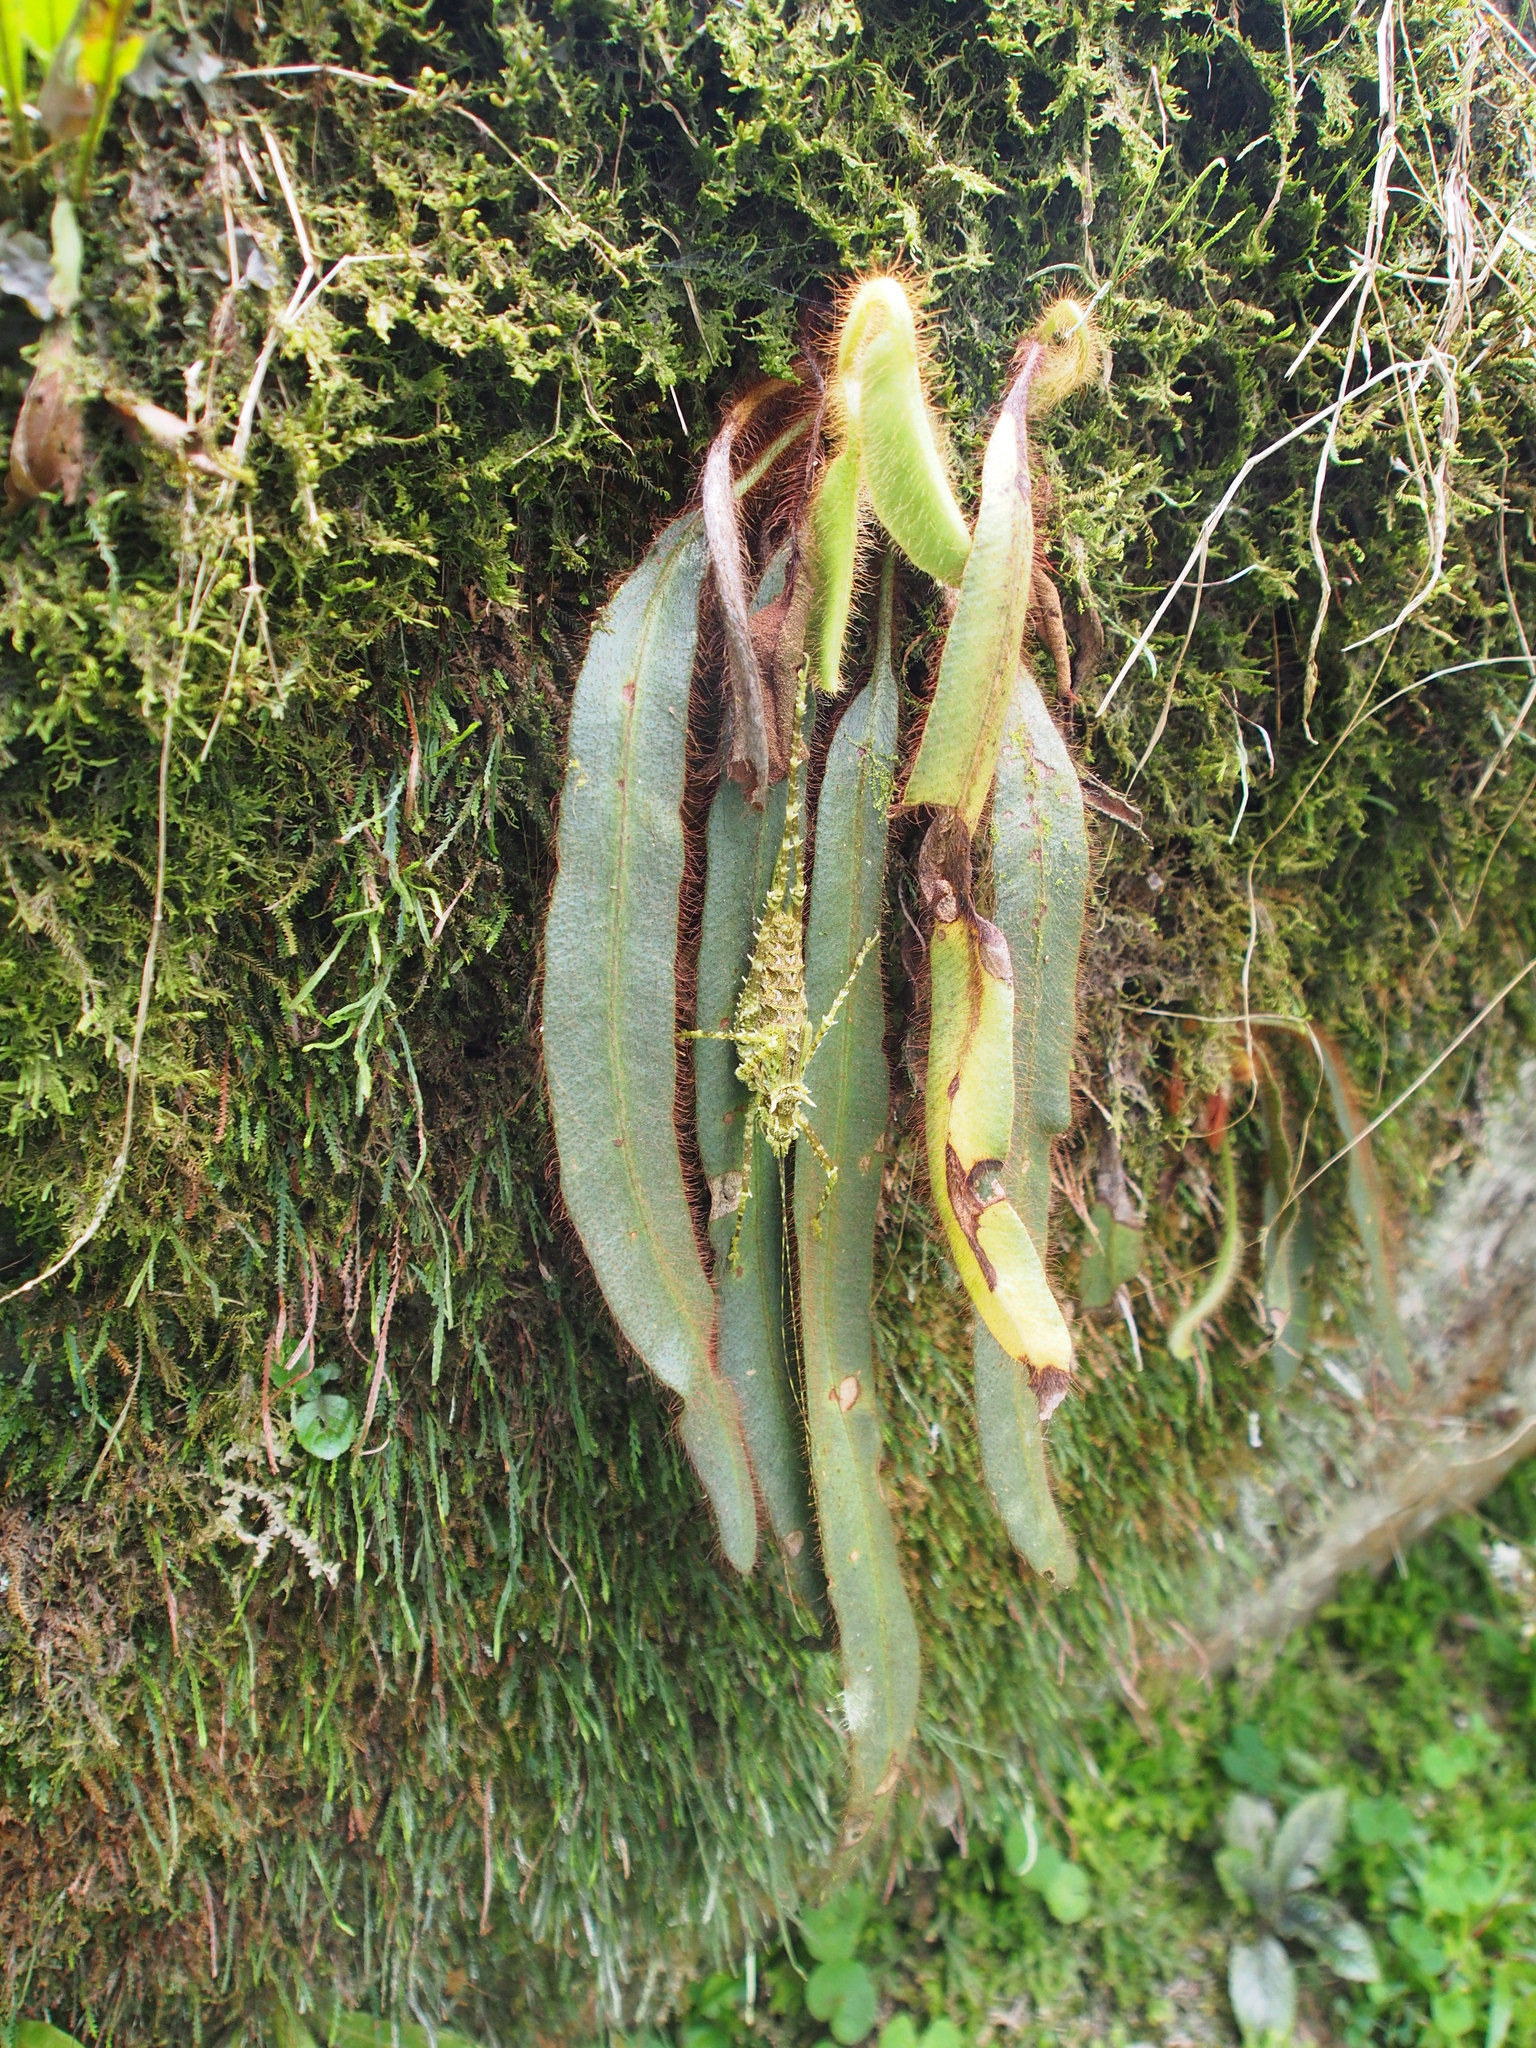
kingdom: Plantae
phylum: Tracheophyta
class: Polypodiopsida
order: Polypodiales
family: Dryopteridaceae
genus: Elaphoglossum
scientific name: Elaphoglossum costaricense
